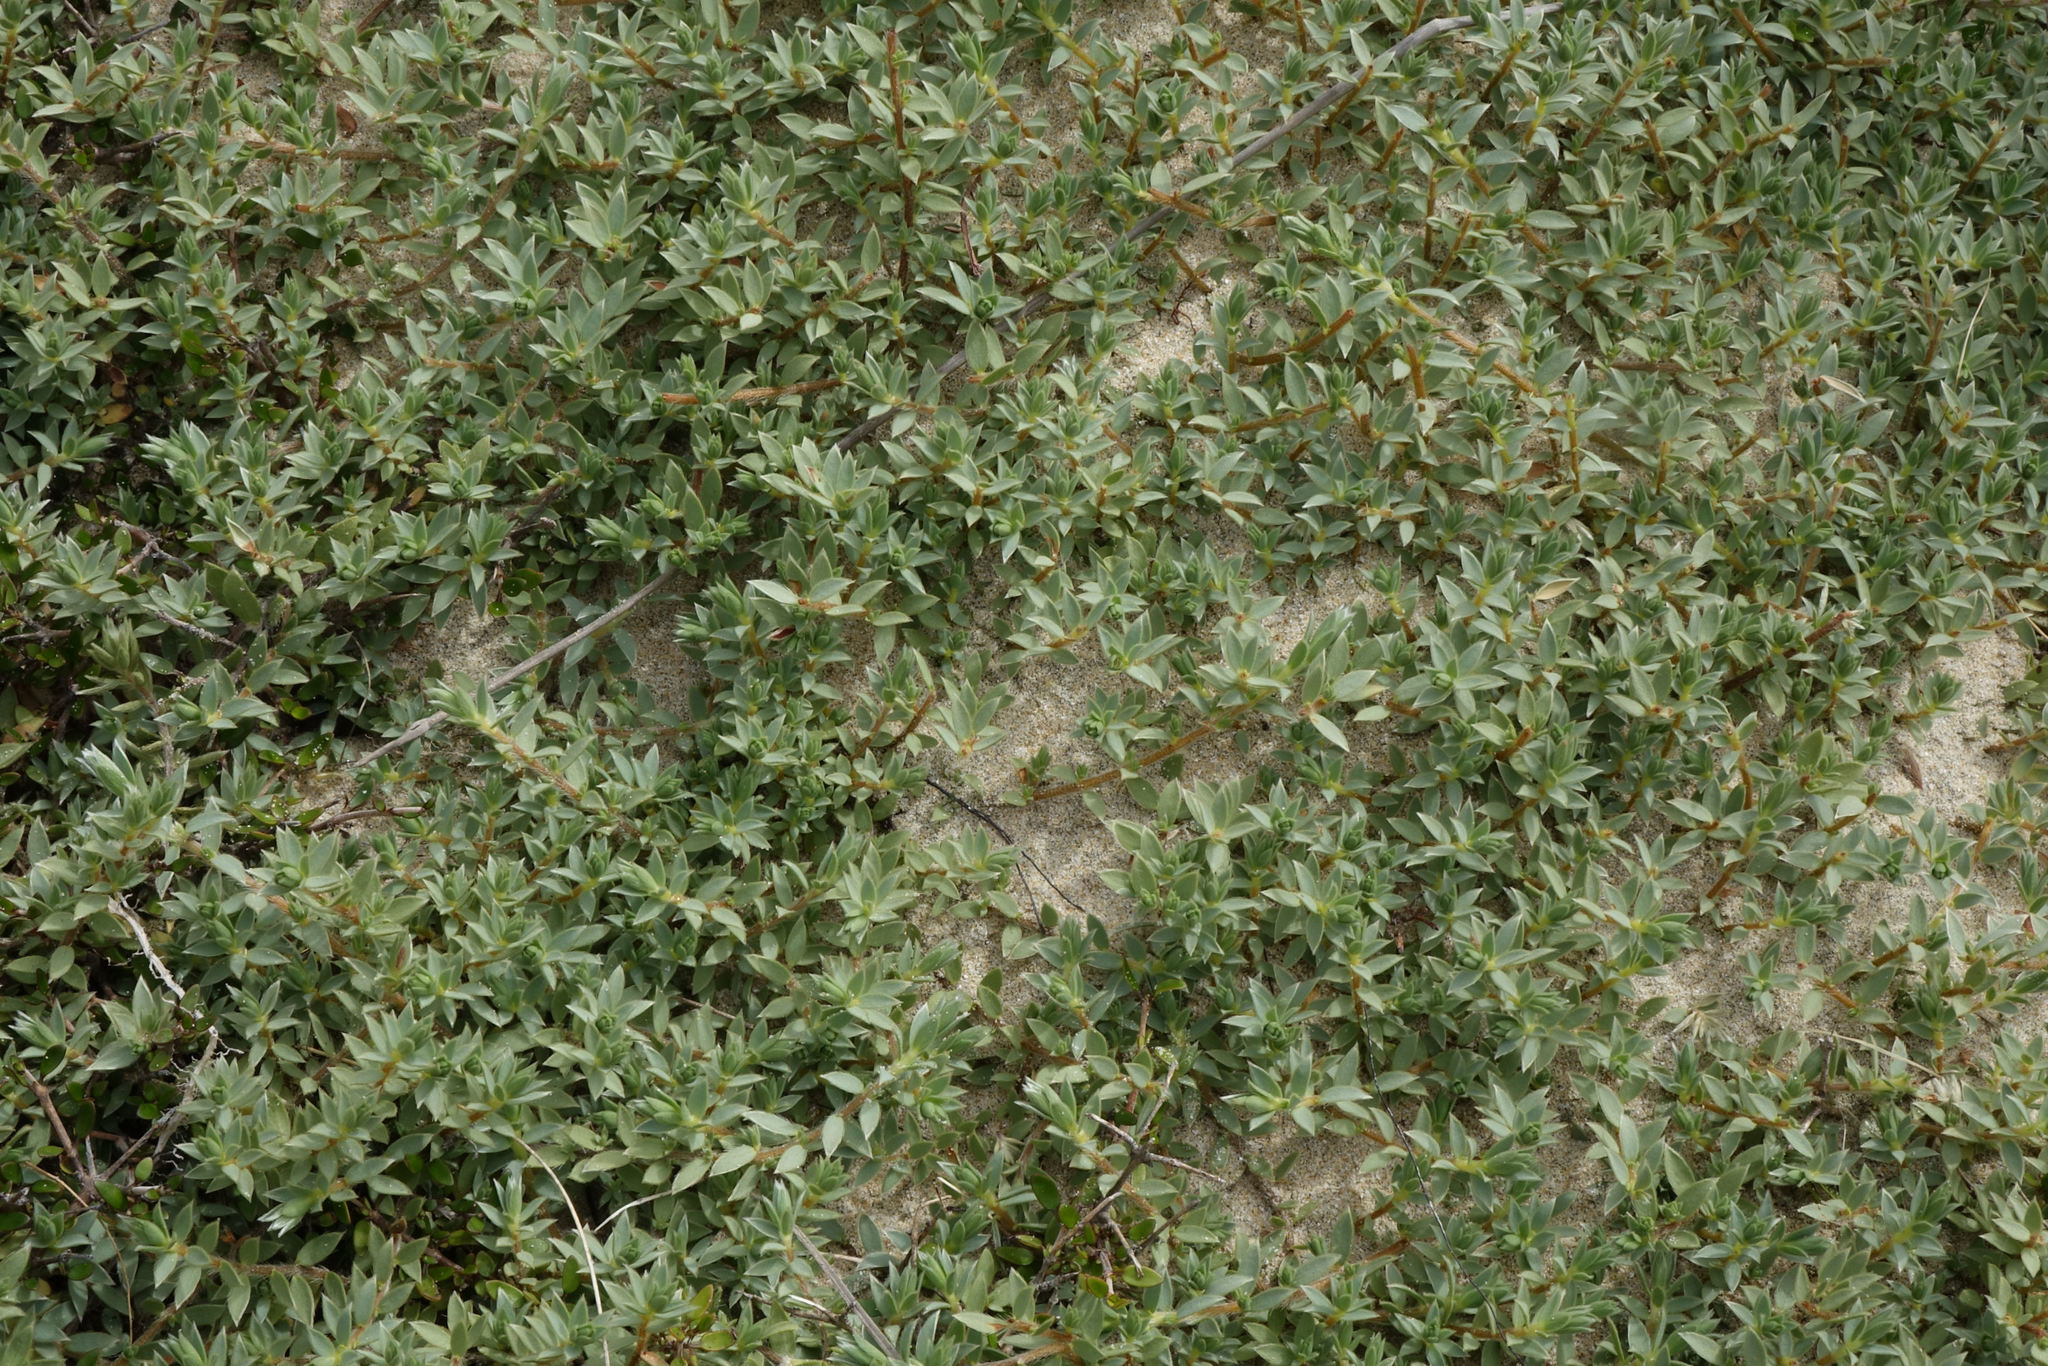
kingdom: Plantae
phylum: Tracheophyta
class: Magnoliopsida
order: Malvales
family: Thymelaeaceae
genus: Pimelea
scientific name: Pimelea lyallii
